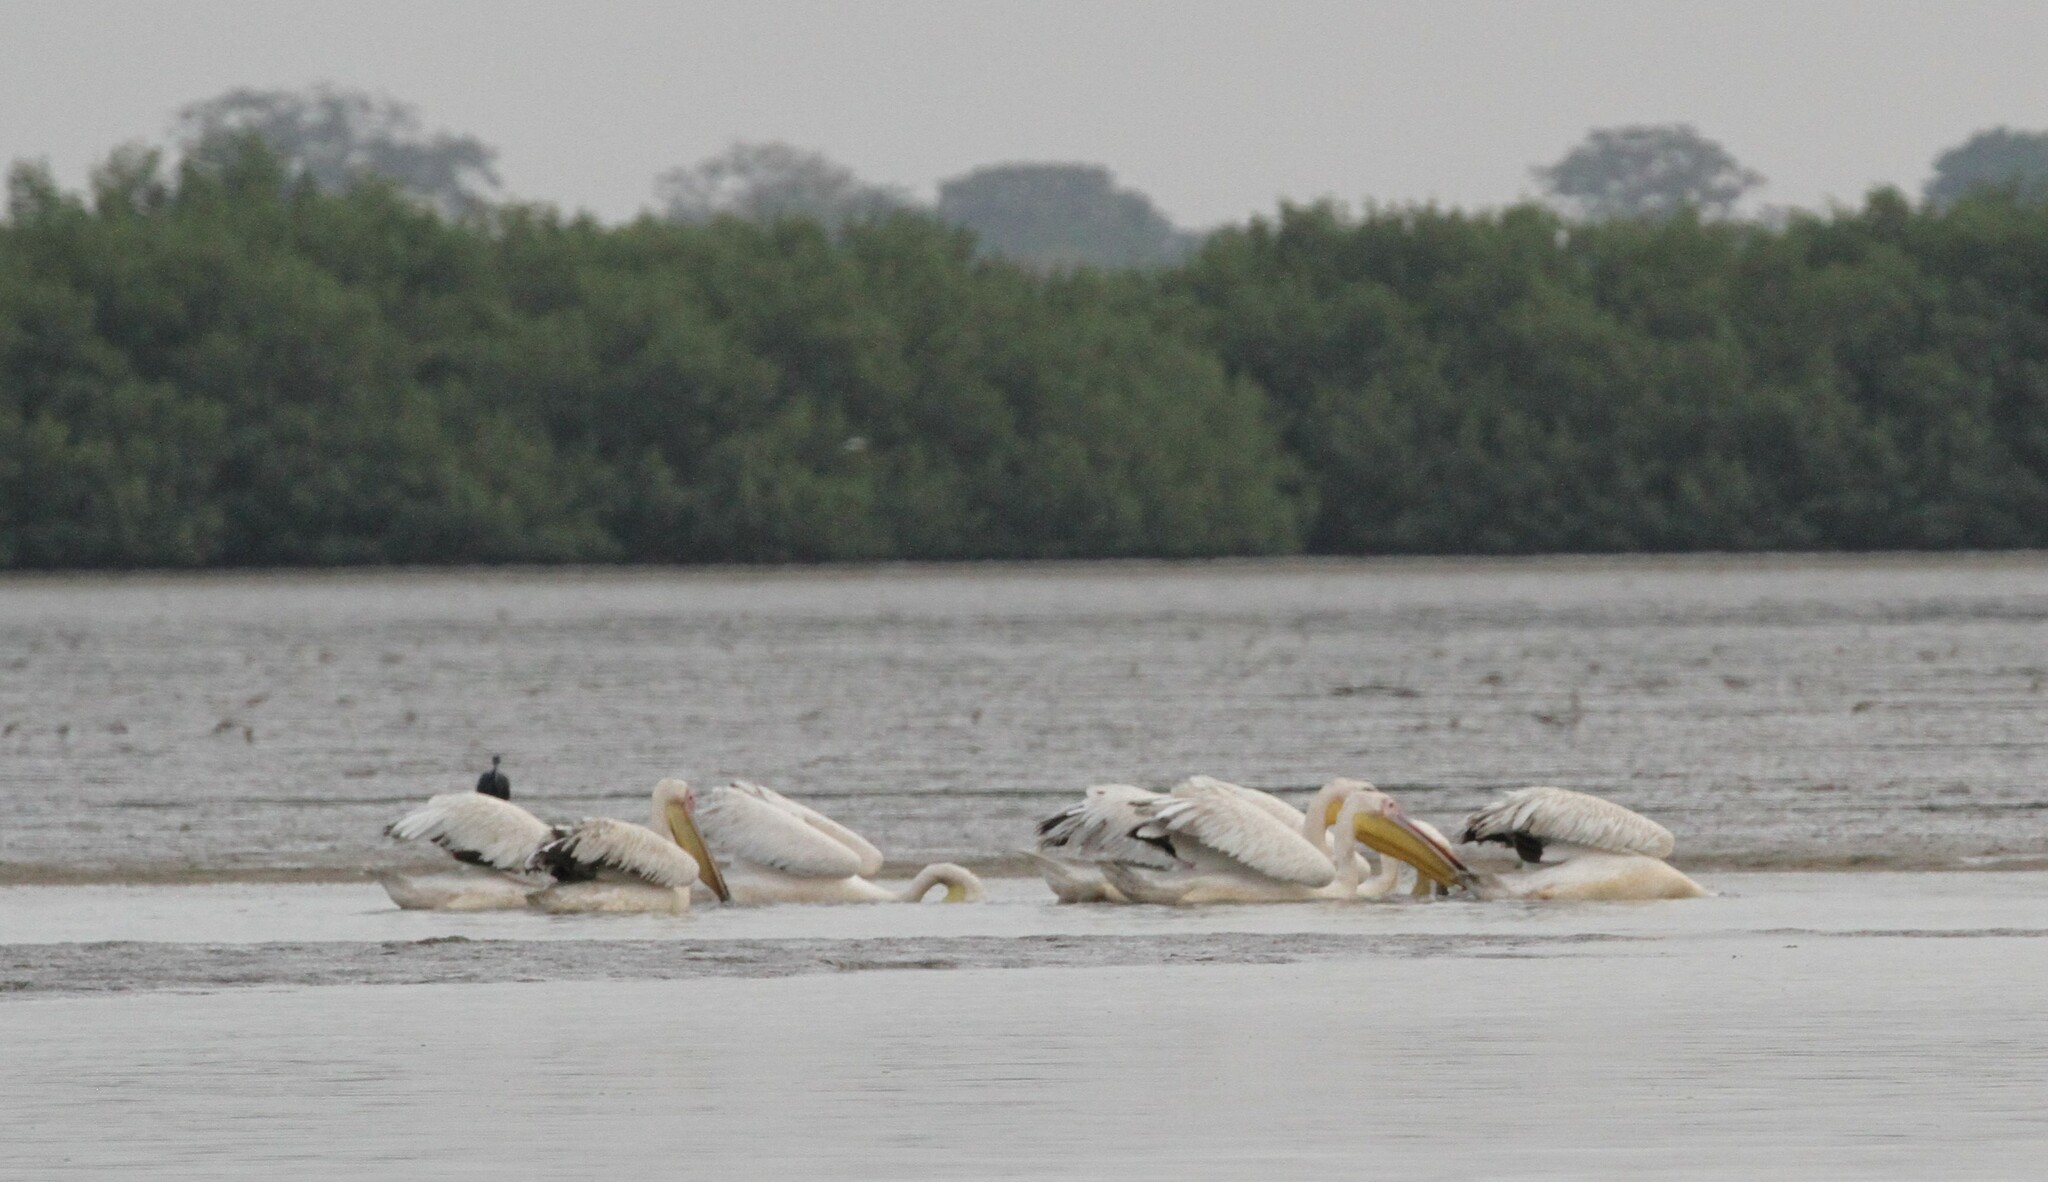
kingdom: Animalia
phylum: Chordata
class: Aves
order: Pelecaniformes
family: Pelecanidae
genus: Pelecanus
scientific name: Pelecanus onocrotalus
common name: Great white pelican
